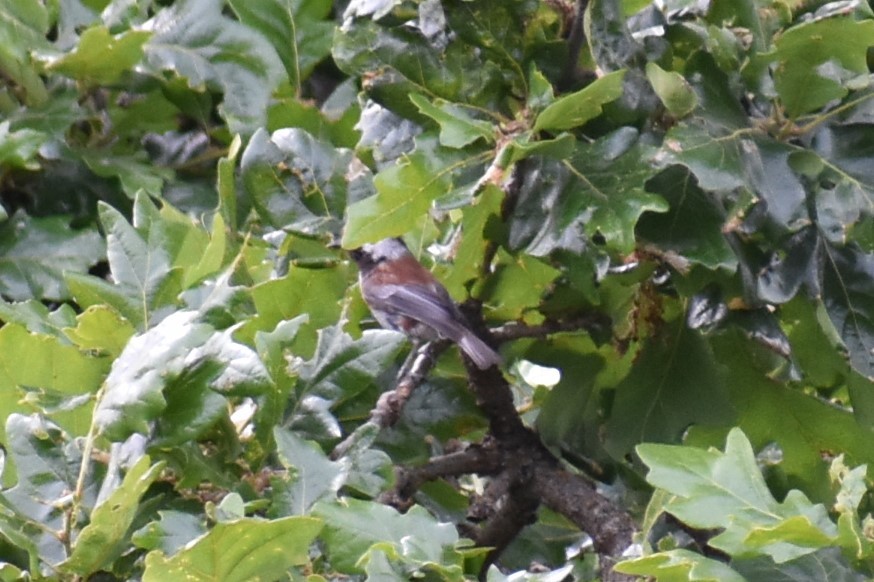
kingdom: Animalia
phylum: Chordata
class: Aves
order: Passeriformes
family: Paridae
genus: Poecile
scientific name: Poecile rufescens
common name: Chestnut-backed chickadee
